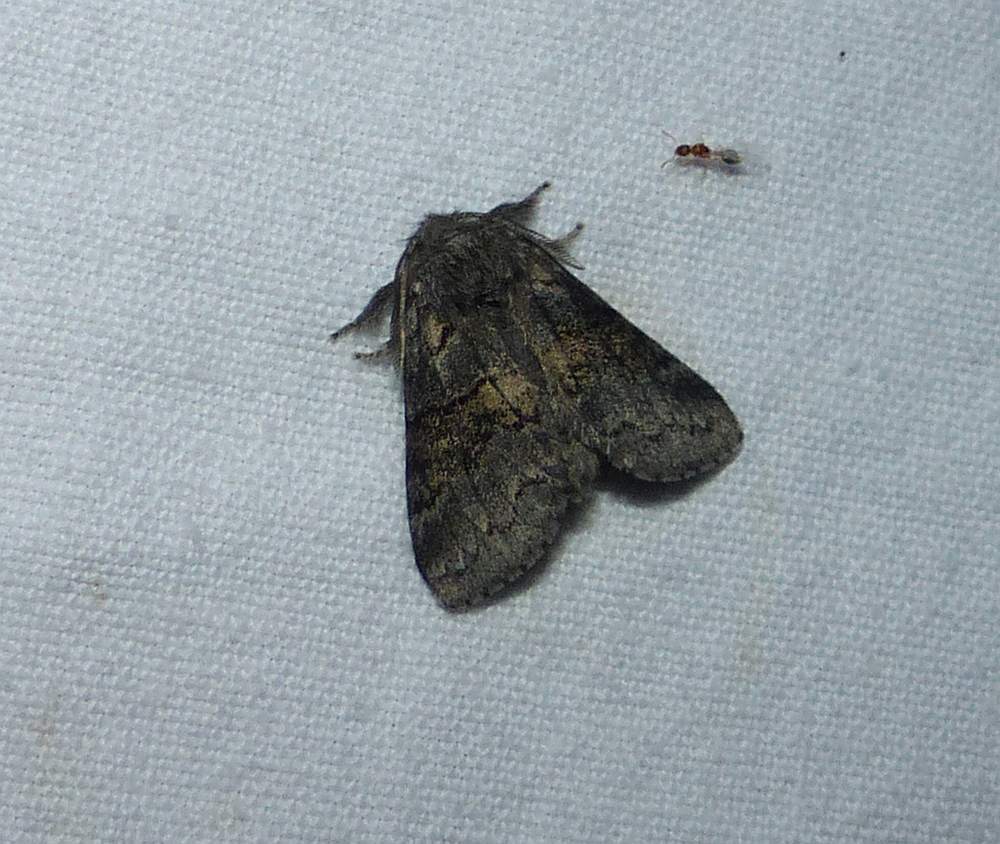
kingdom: Animalia
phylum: Arthropoda
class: Insecta
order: Lepidoptera
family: Notodontidae
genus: Gluphisia
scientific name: Gluphisia septentrionis
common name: Common gluphisia
